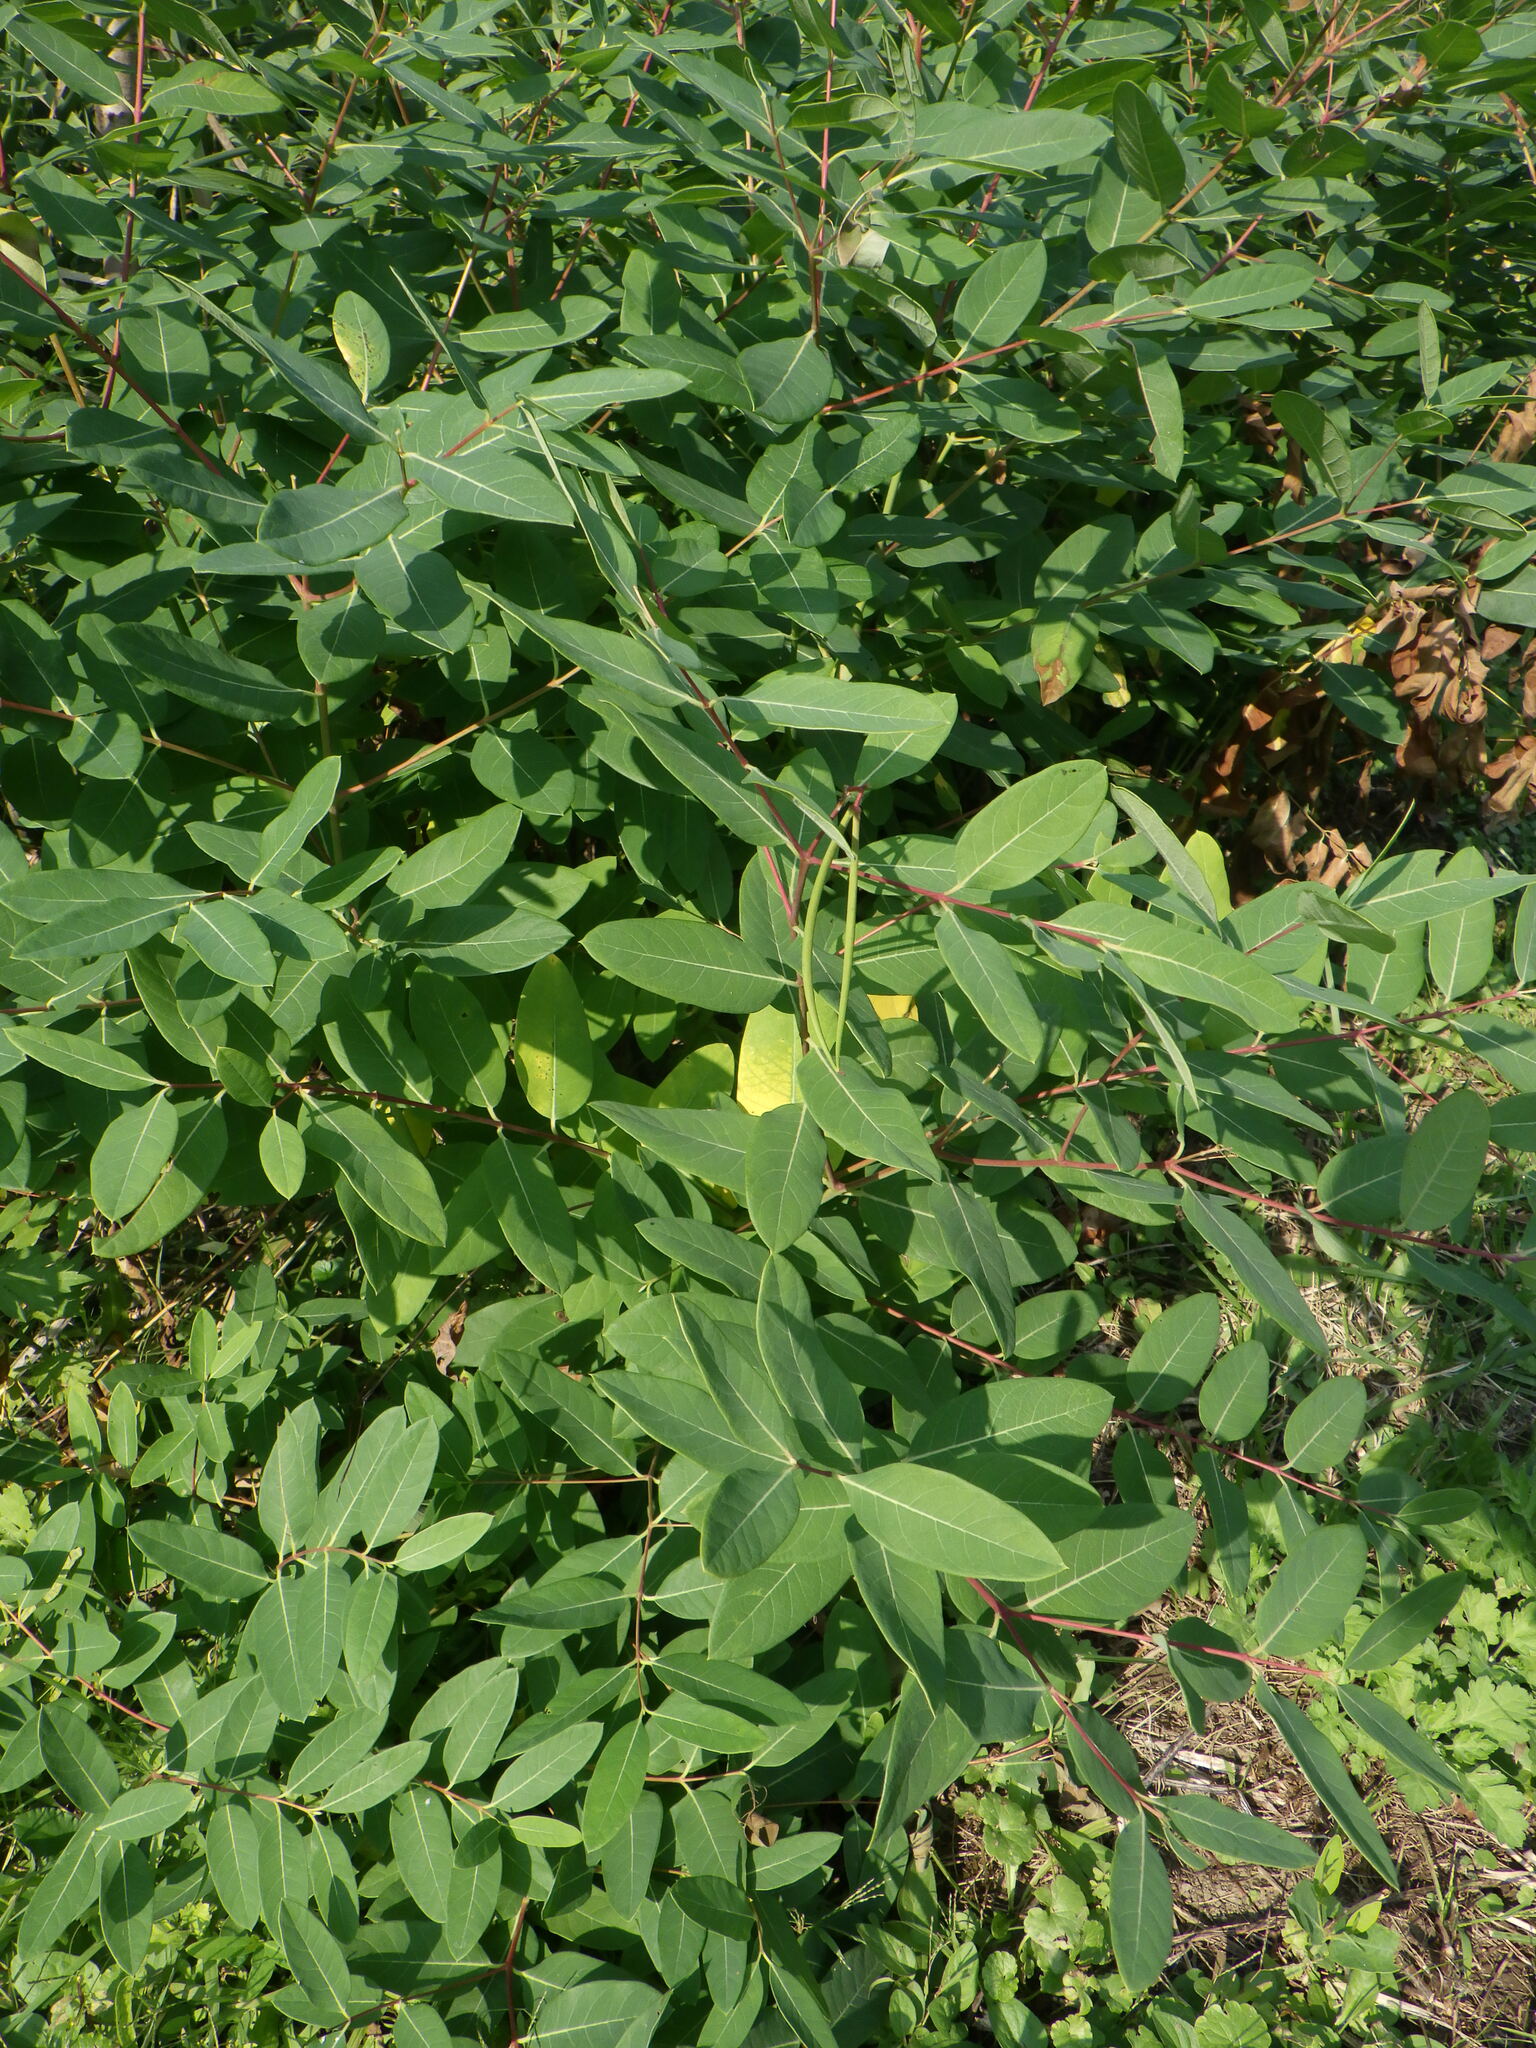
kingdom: Plantae
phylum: Tracheophyta
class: Magnoliopsida
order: Gentianales
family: Apocynaceae
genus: Apocynum
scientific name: Apocynum cannabinum
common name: Hemp dogbane
